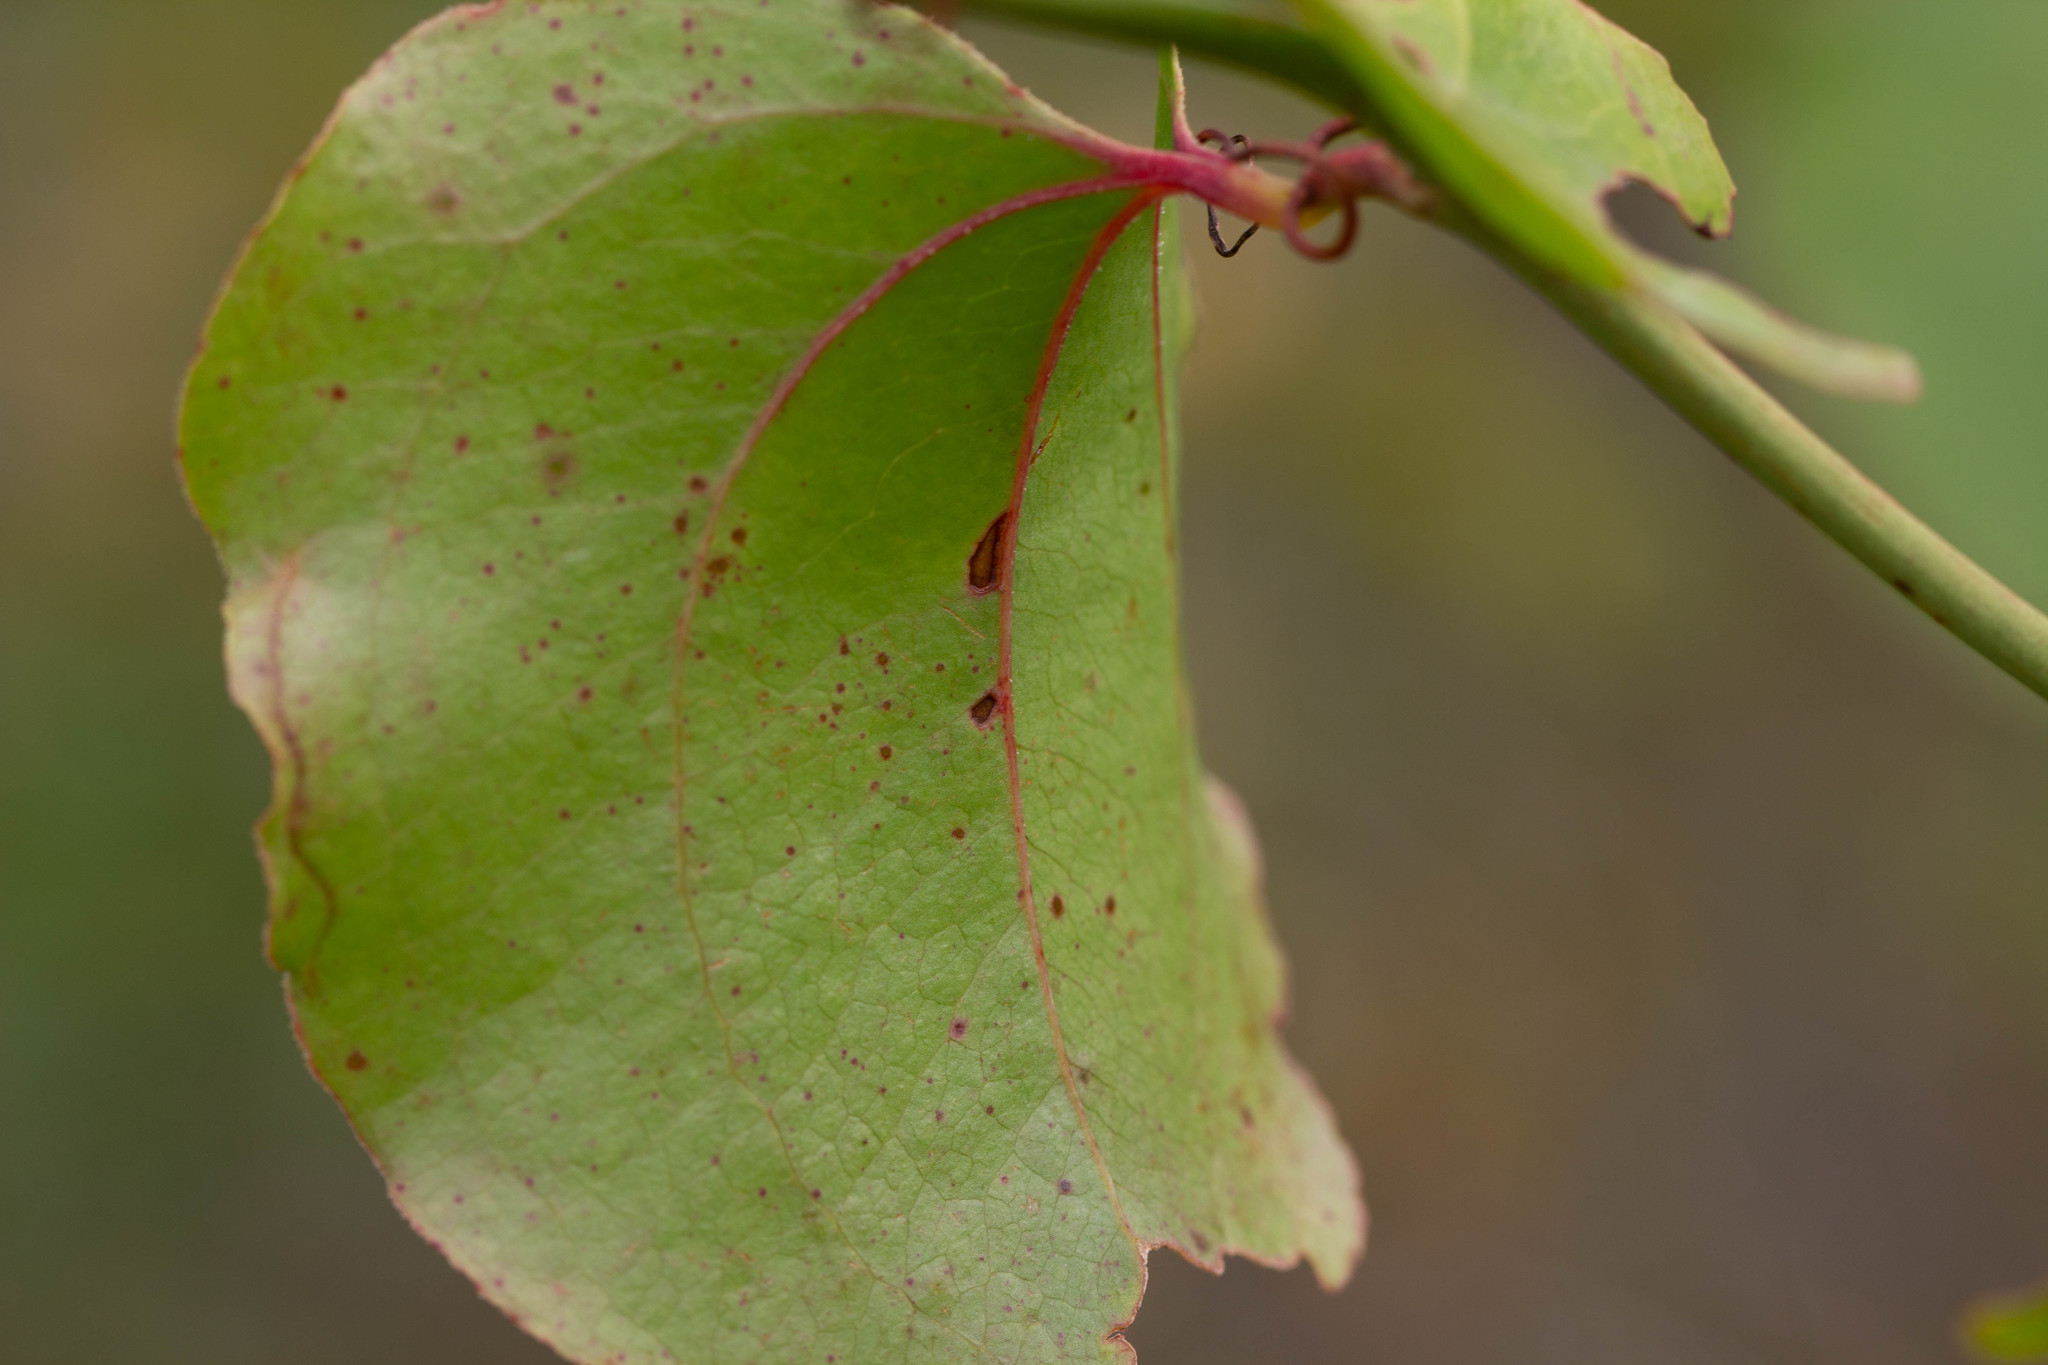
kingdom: Plantae
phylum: Tracheophyta
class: Liliopsida
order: Liliales
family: Smilacaceae
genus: Smilax
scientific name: Smilax rotundifolia
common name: Bullbriar
